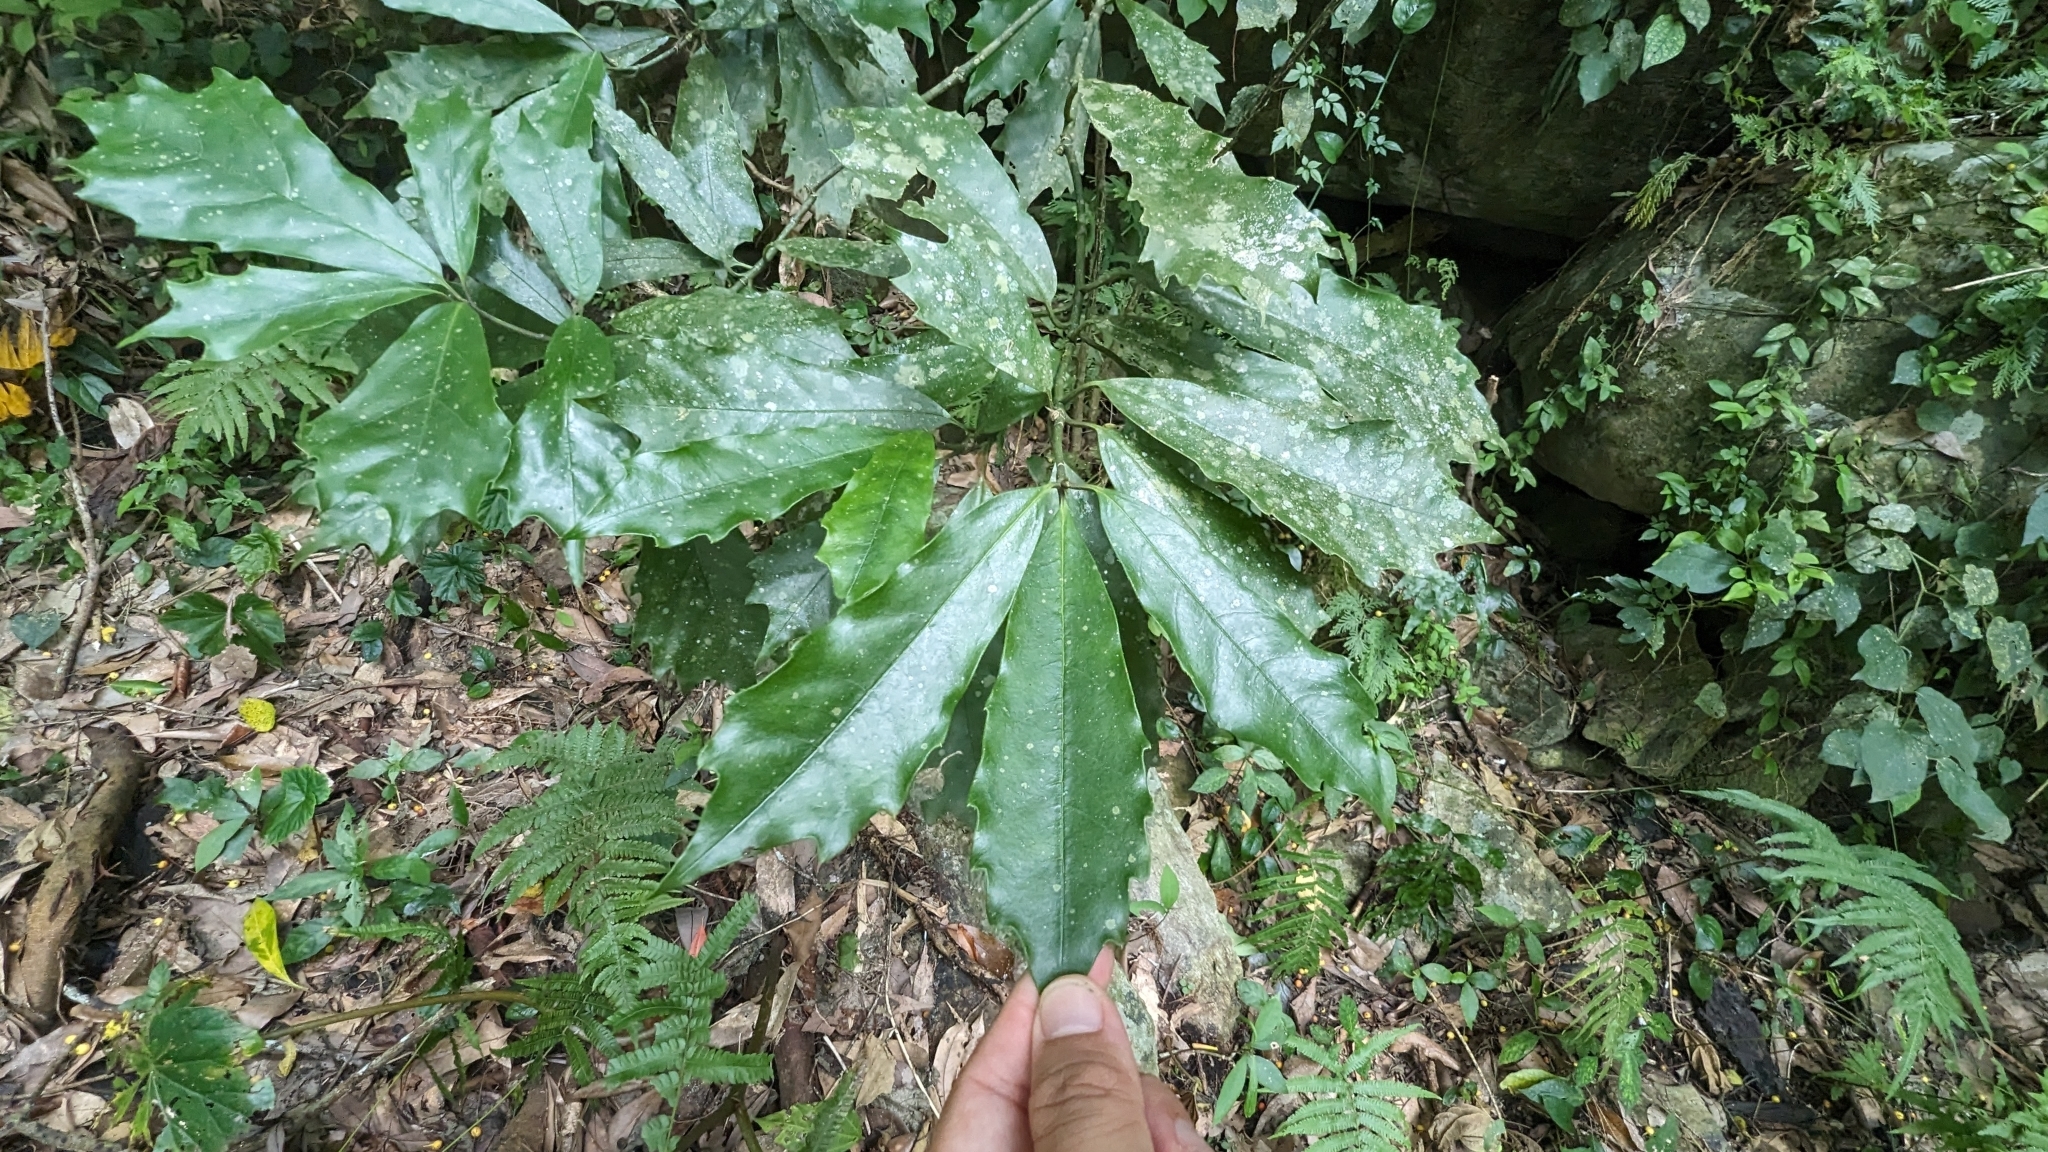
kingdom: Plantae
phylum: Tracheophyta
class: Magnoliopsida
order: Garryales
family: Garryaceae
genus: Aucuba
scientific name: Aucuba obcordata
